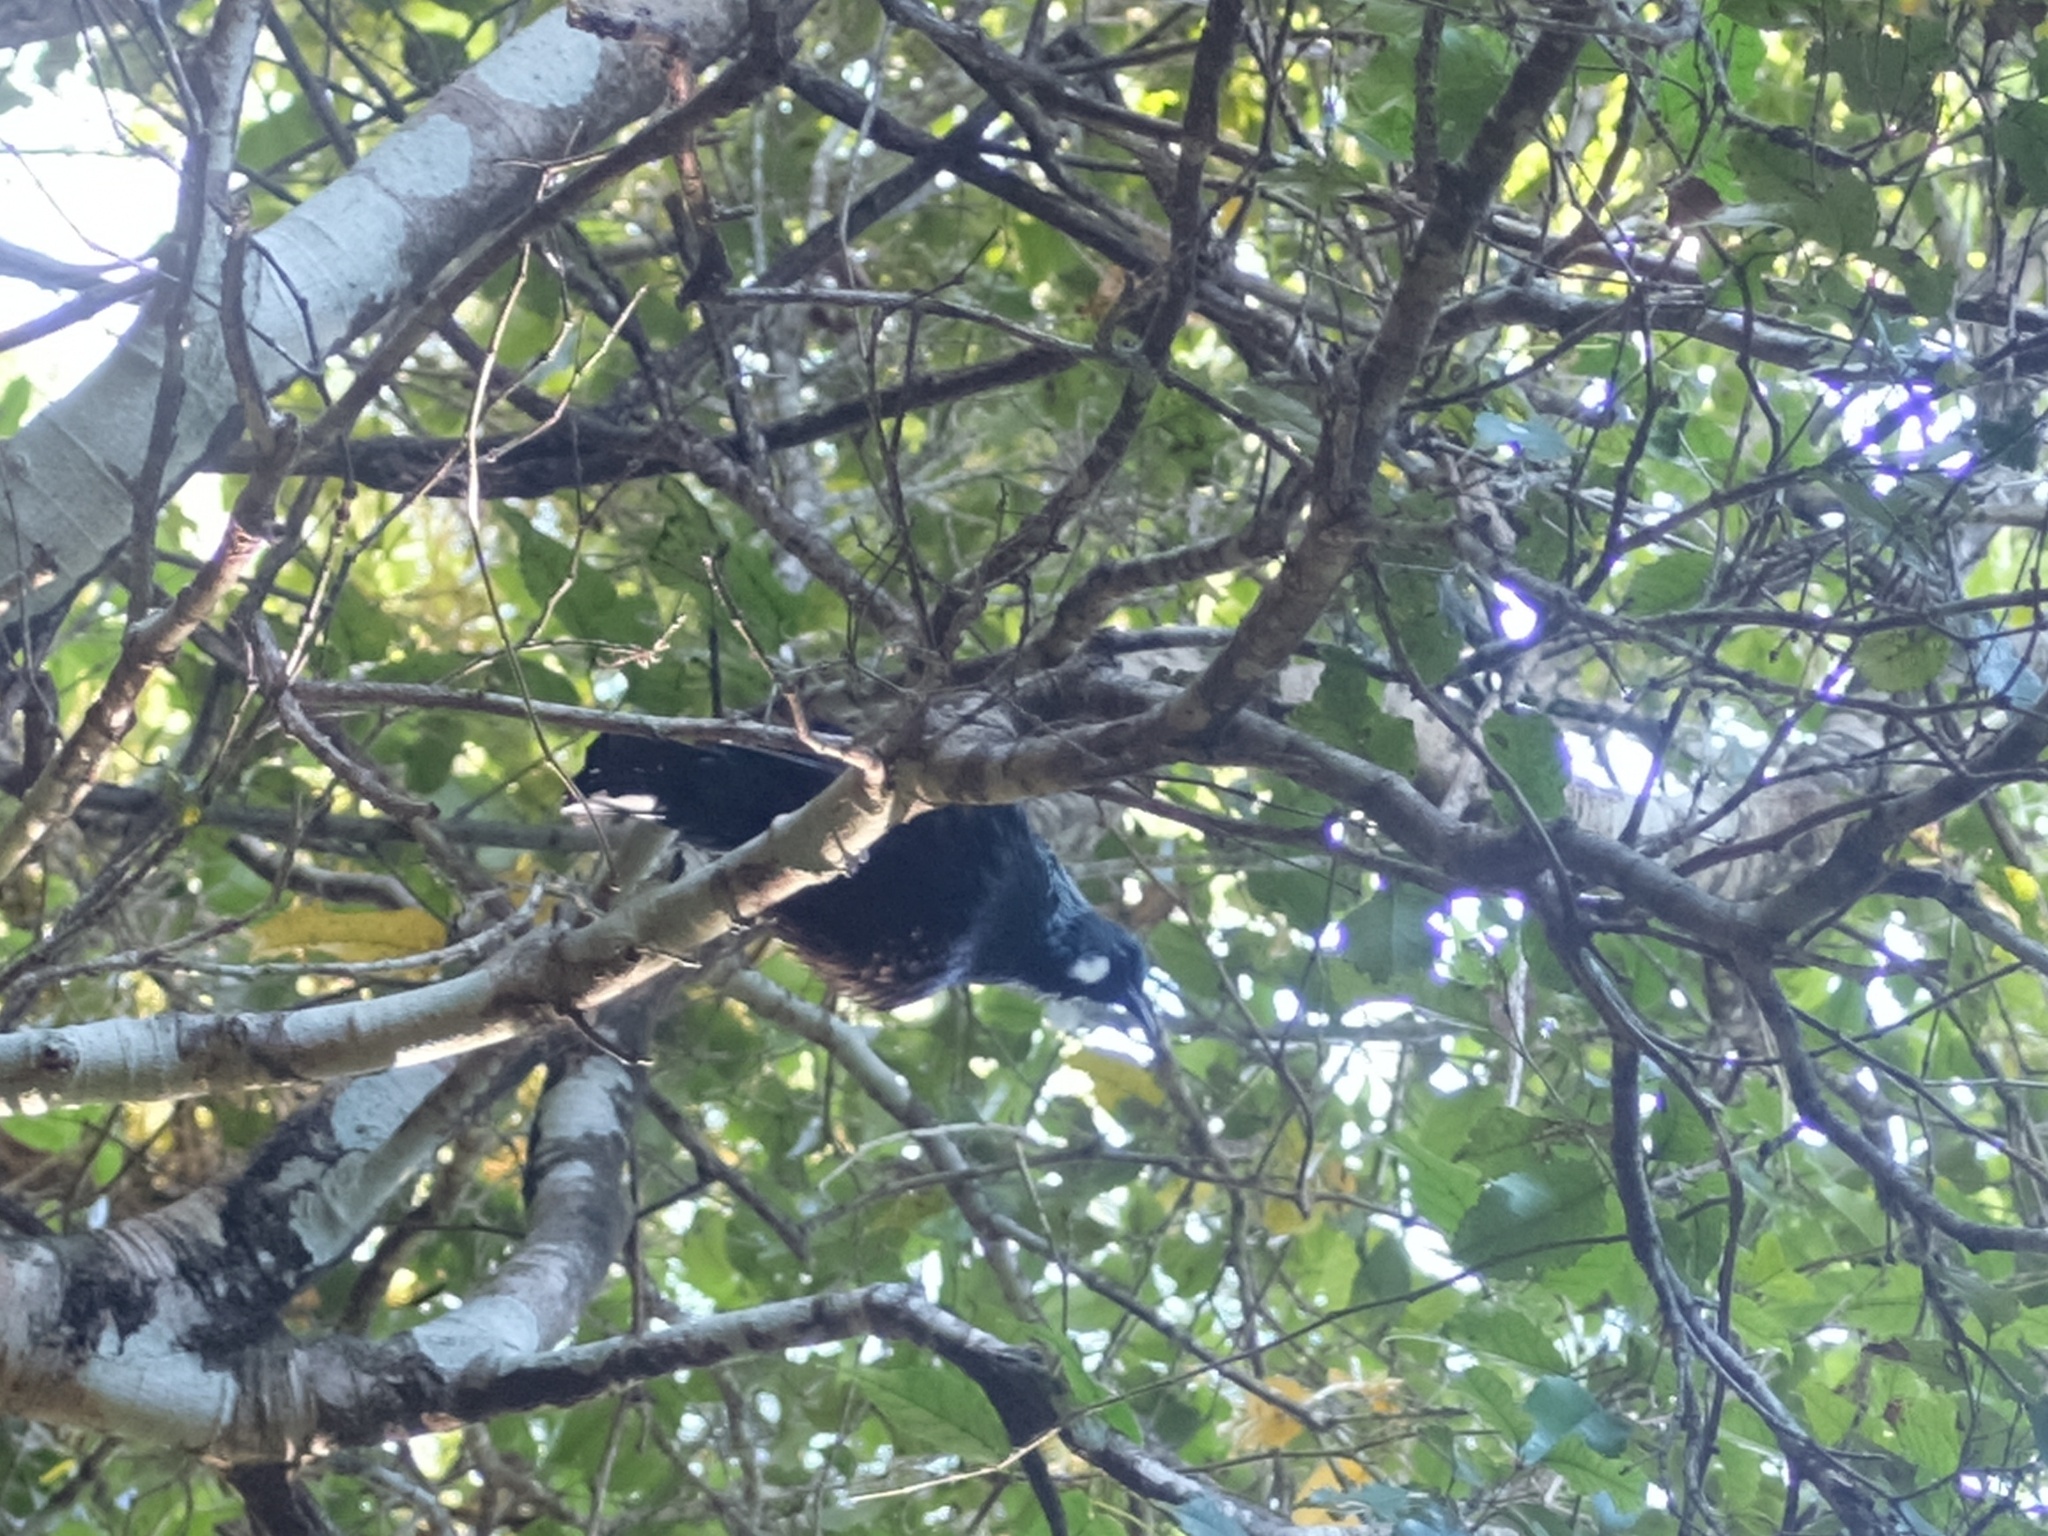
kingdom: Animalia
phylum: Chordata
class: Aves
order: Passeriformes
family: Meliphagidae
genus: Prosthemadera
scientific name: Prosthemadera novaeseelandiae
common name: Tui
